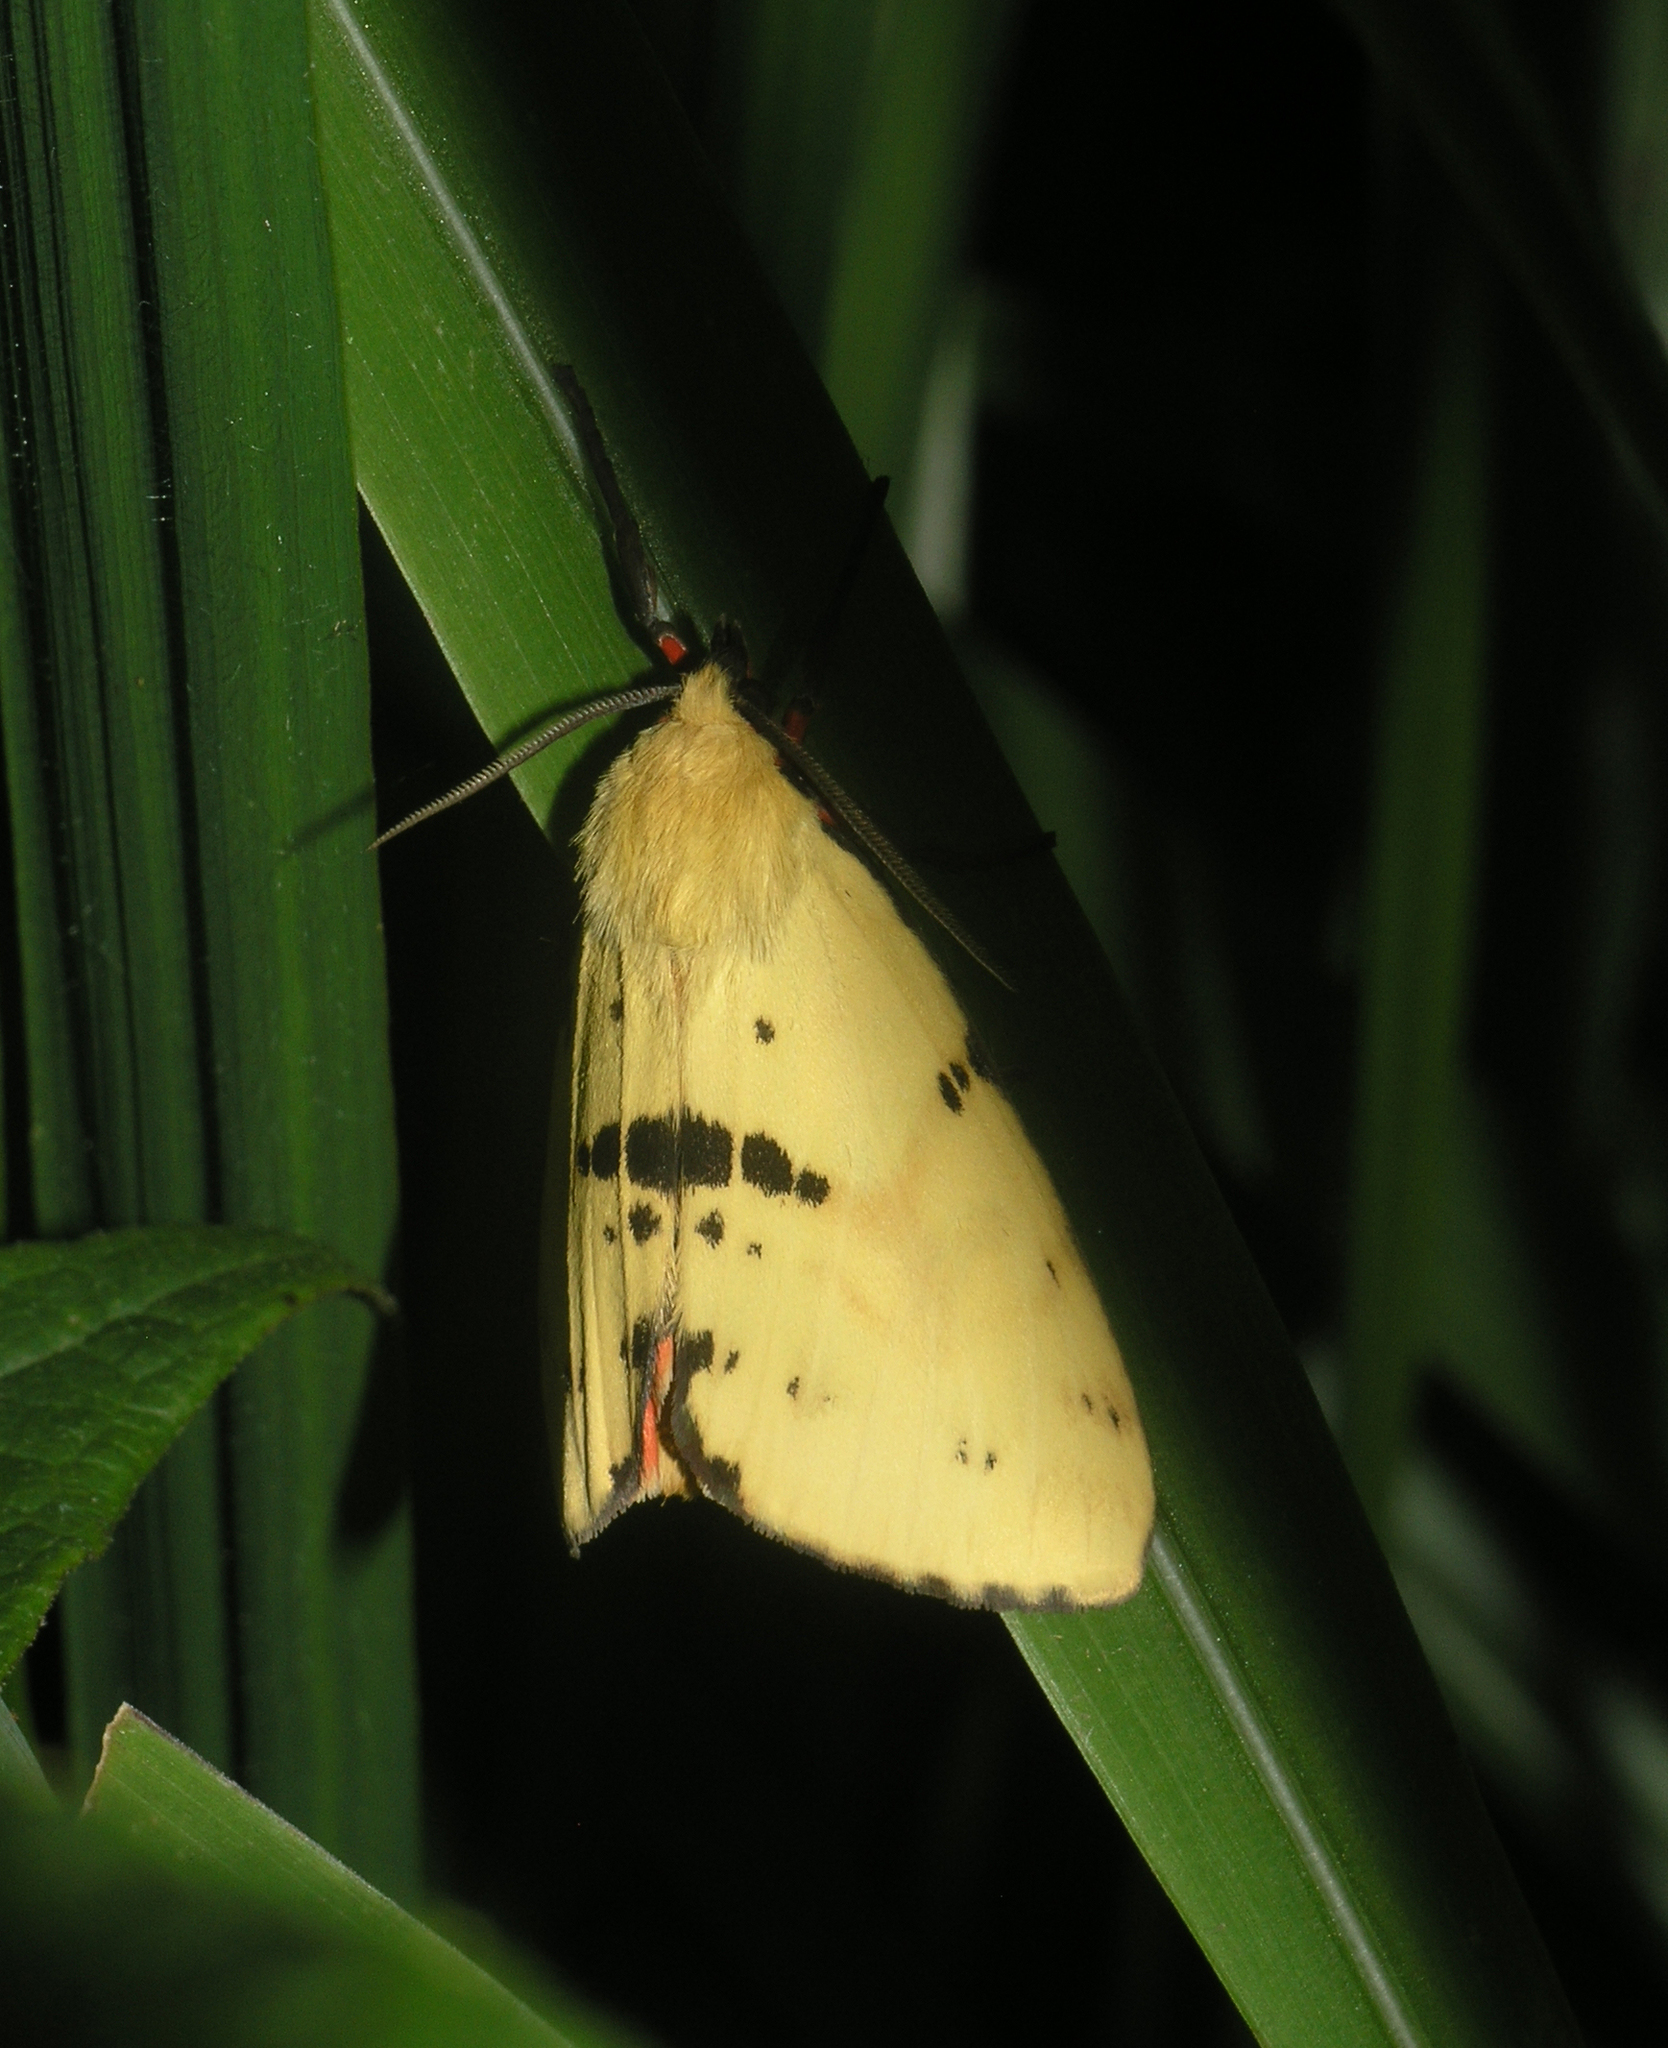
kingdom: Animalia
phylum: Arthropoda
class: Insecta
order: Lepidoptera
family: Erebidae
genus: Diacrisia
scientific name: Diacrisia amurensis
